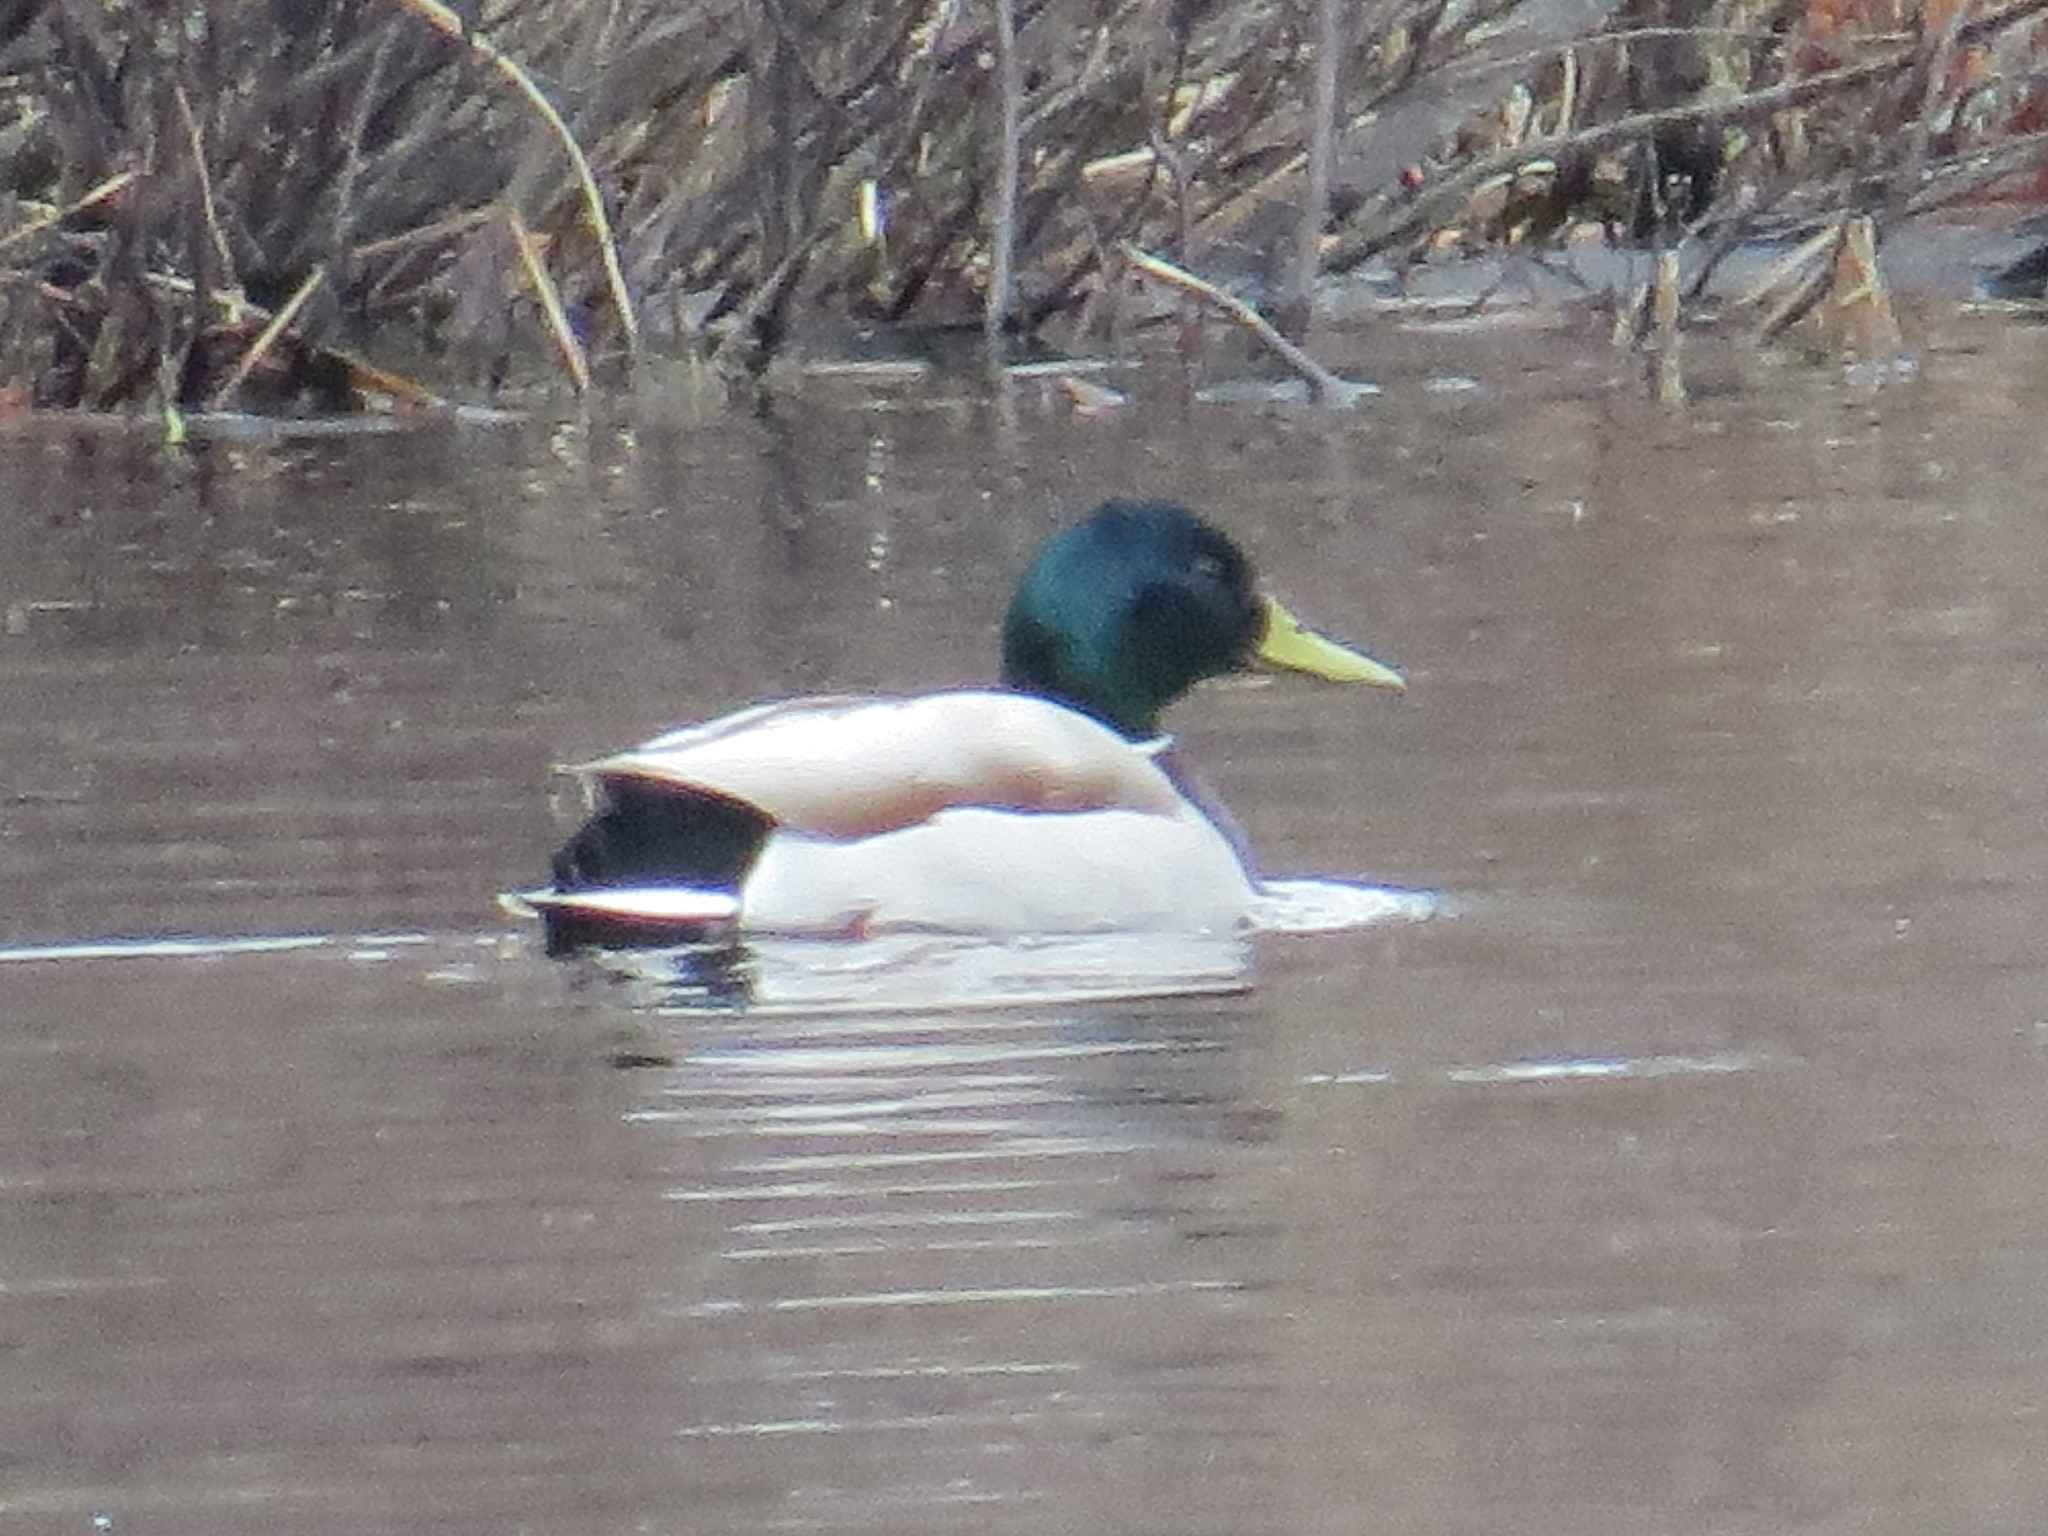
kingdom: Animalia
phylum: Chordata
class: Aves
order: Anseriformes
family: Anatidae
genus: Anas
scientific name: Anas platyrhynchos
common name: Mallard
